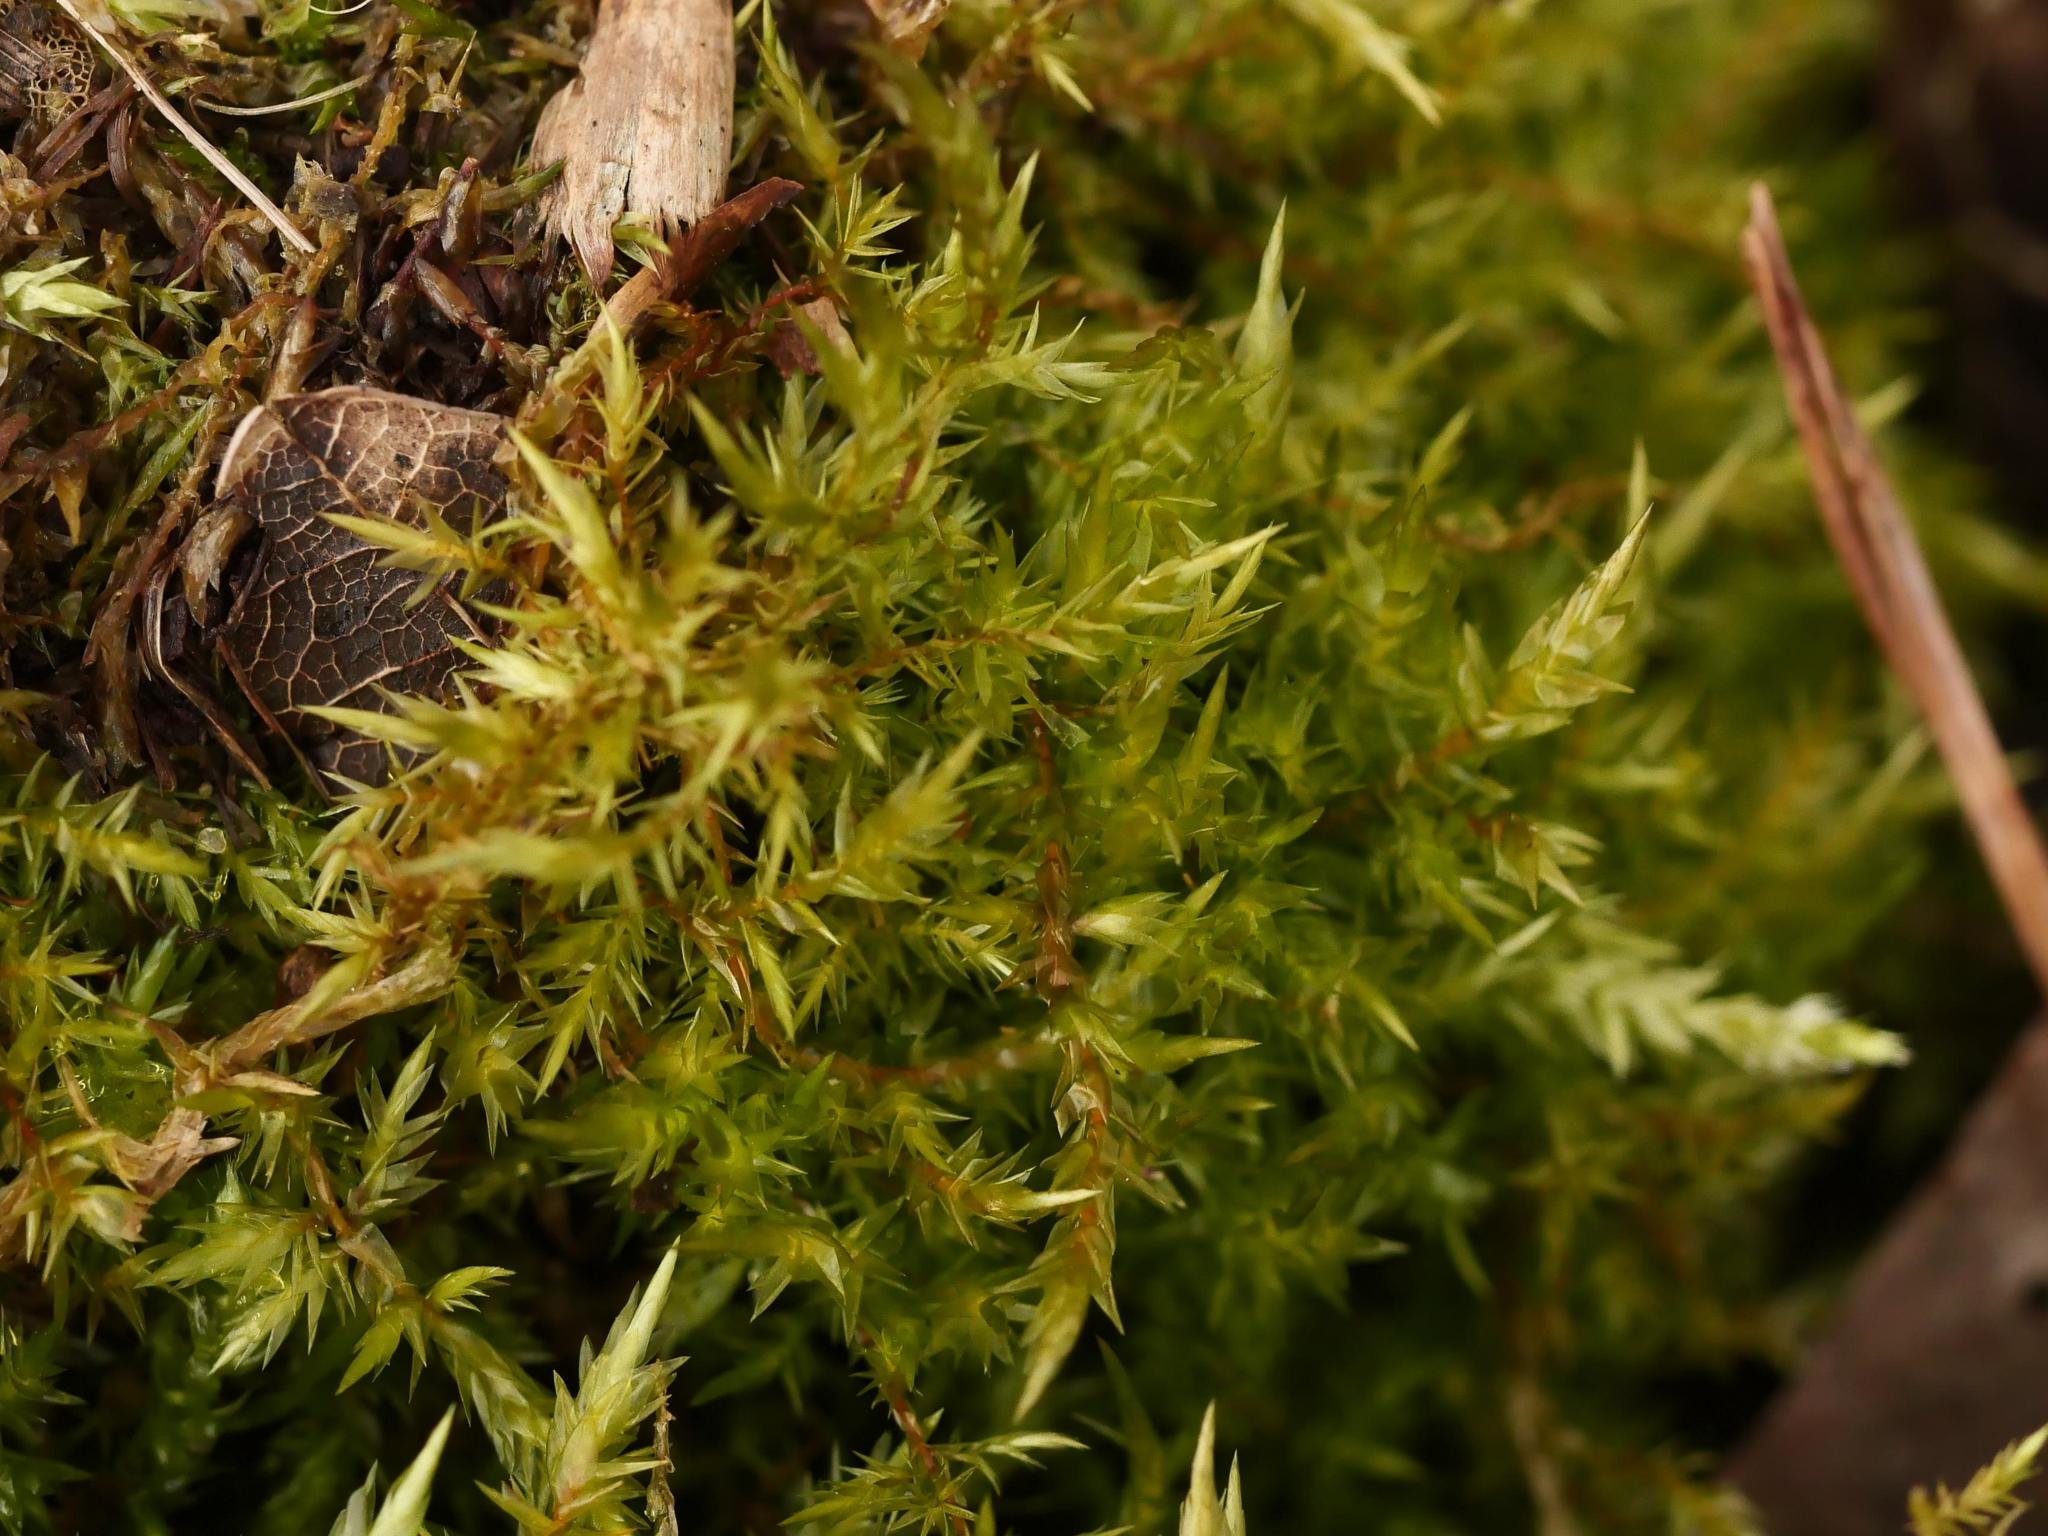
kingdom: Plantae
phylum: Bryophyta
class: Bryopsida
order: Hypnales
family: Pylaisiaceae
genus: Calliergonella
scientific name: Calliergonella cuspidata
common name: Common large wetland moss
